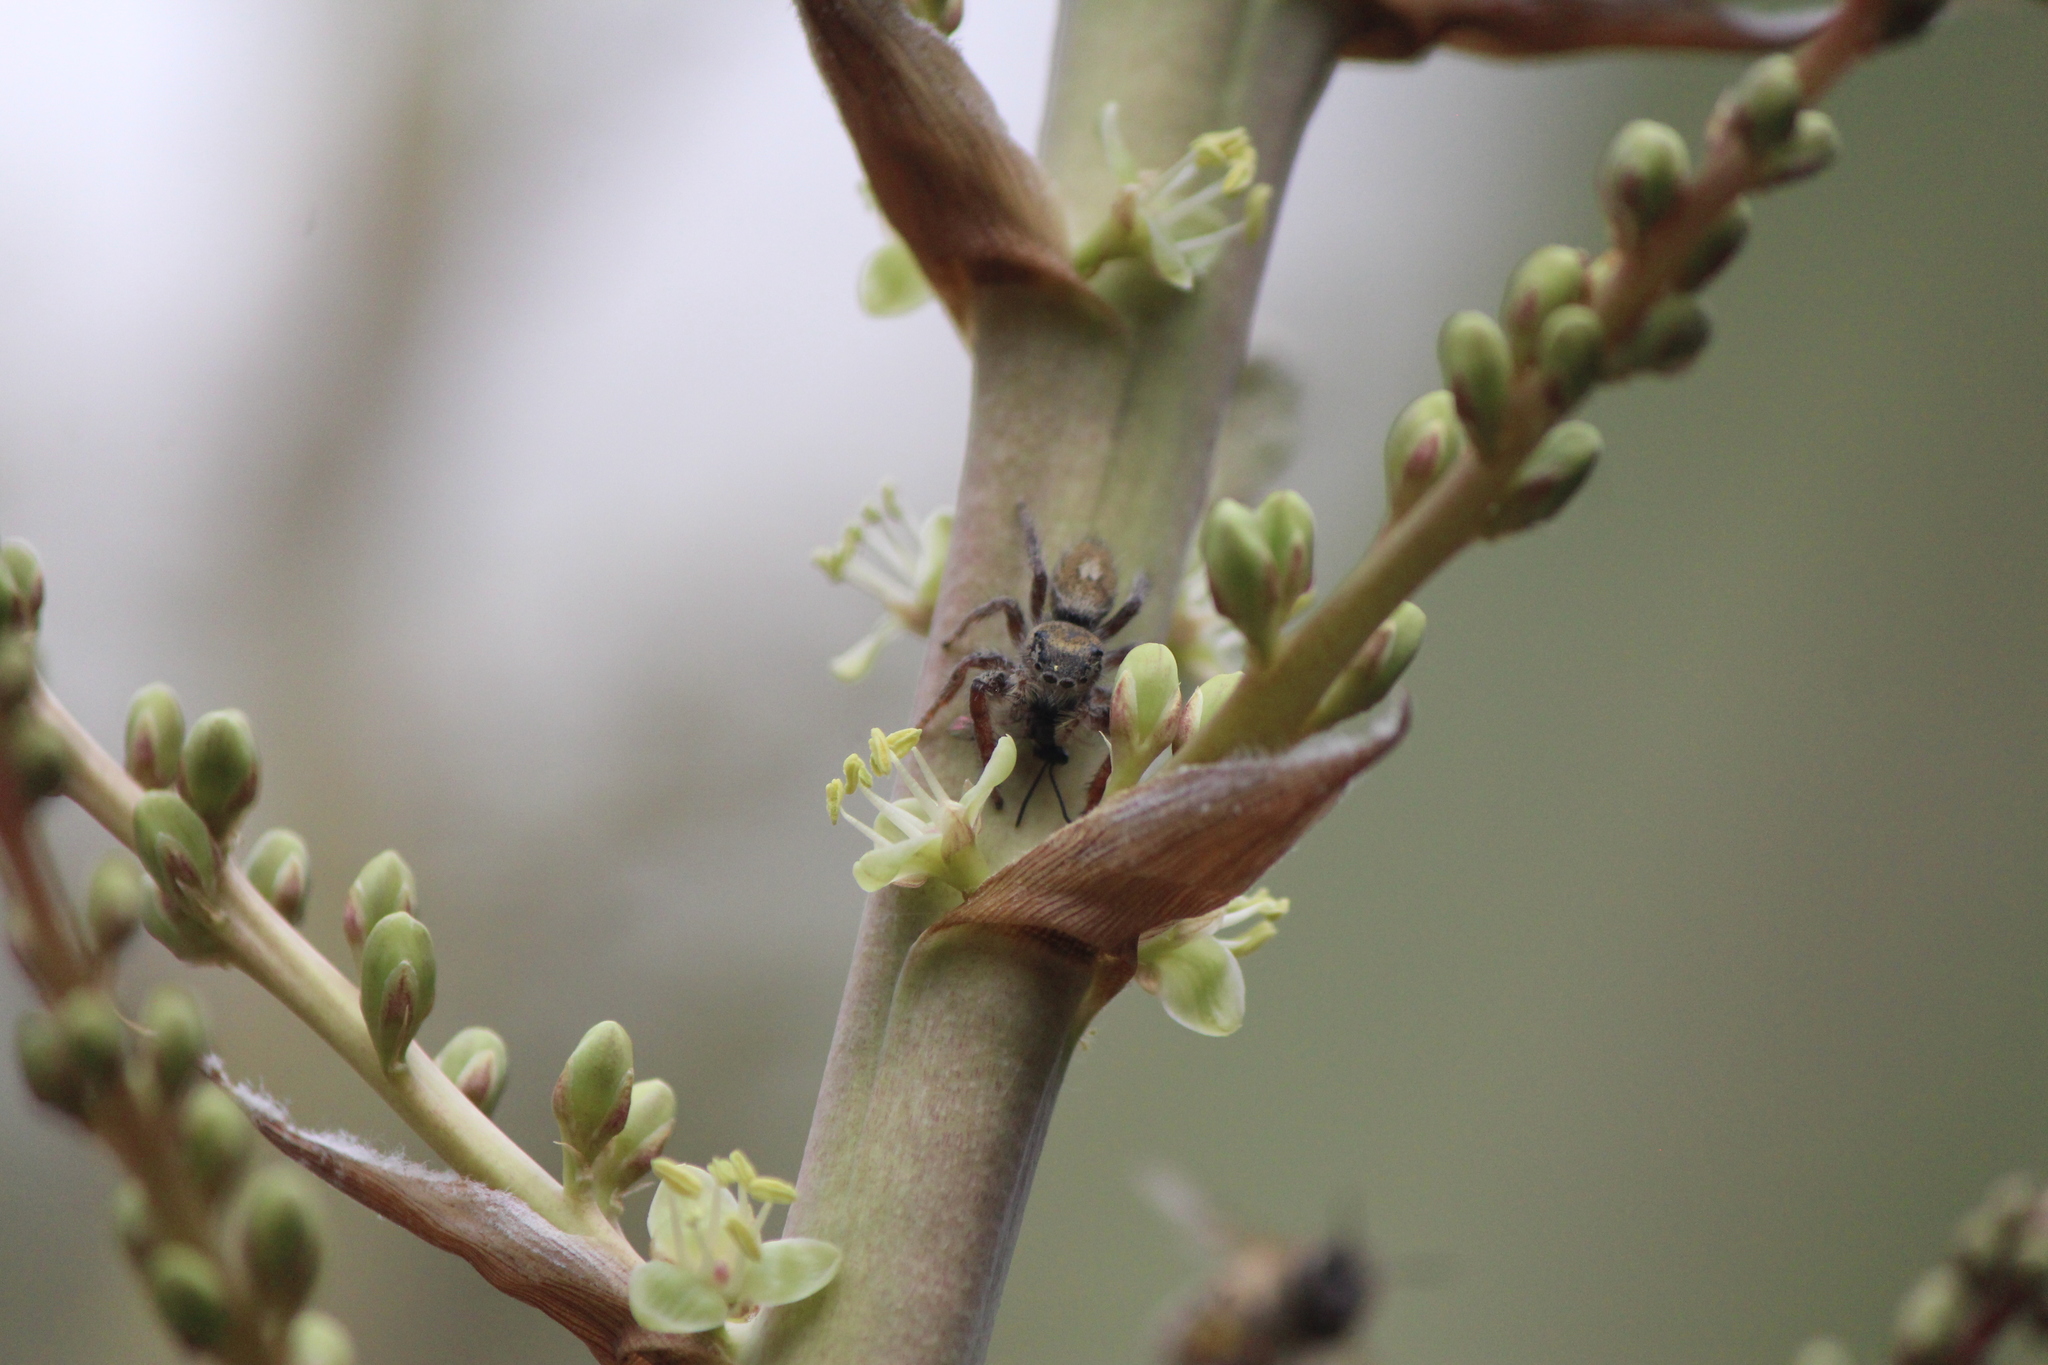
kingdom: Animalia
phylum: Arthropoda
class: Arachnida
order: Araneae
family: Salticidae
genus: Phidippus
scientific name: Phidippus arizonensis
